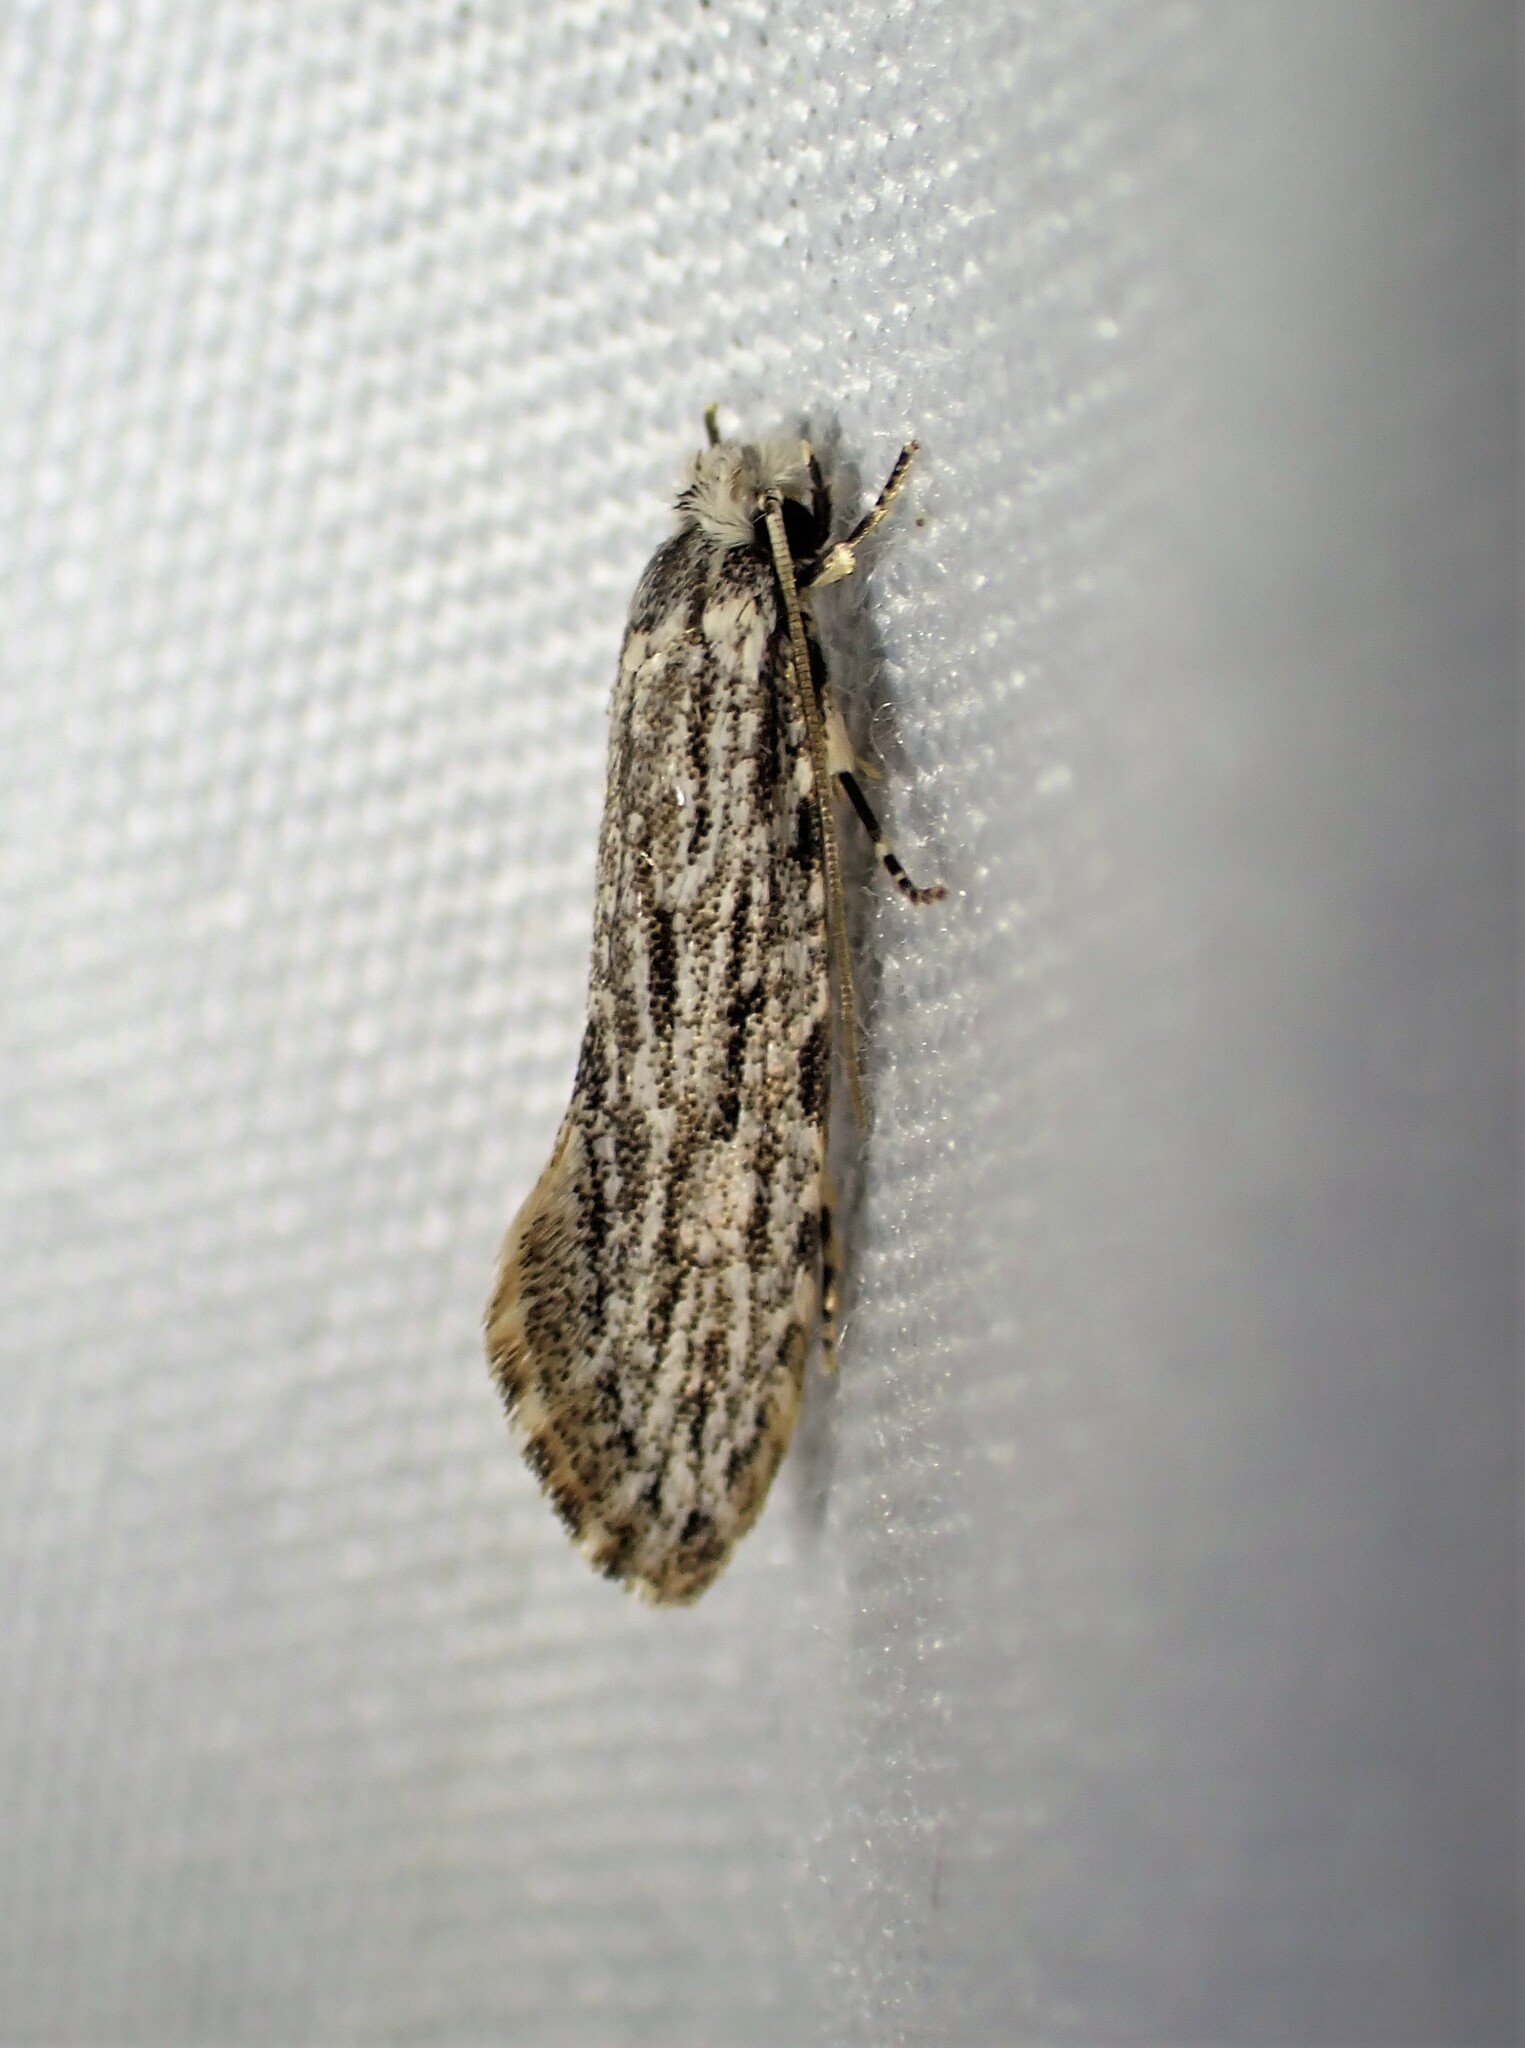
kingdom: Animalia
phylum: Arthropoda
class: Insecta
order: Lepidoptera
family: Tineidae
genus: Nemapogon
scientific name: Nemapogon multistriatella
